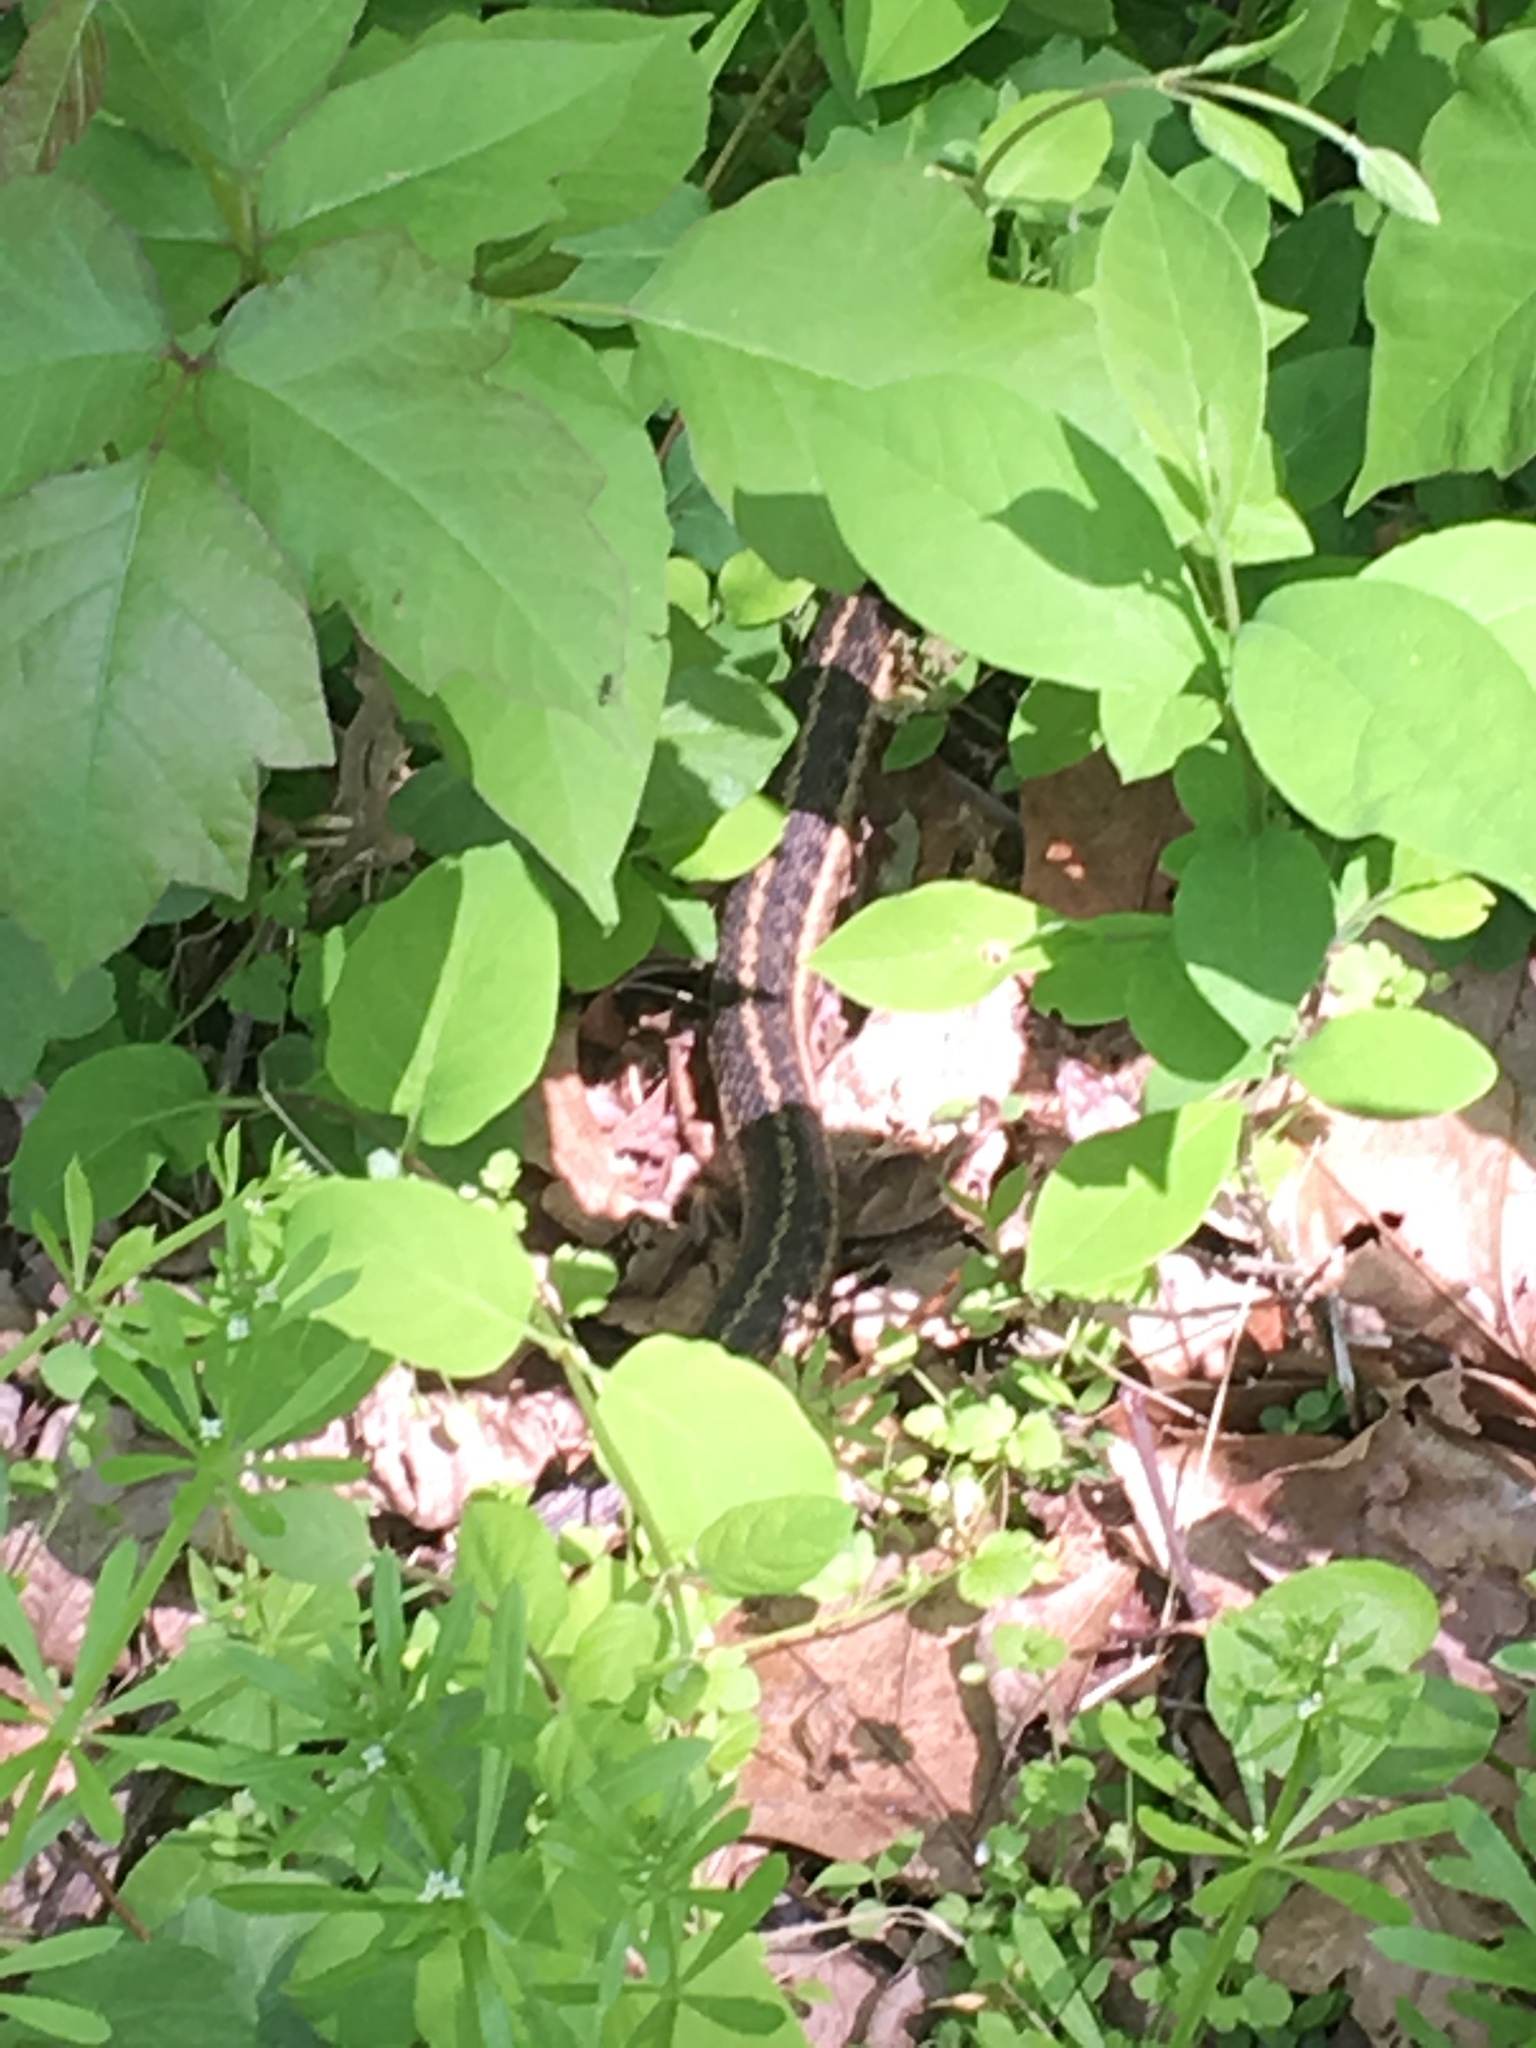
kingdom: Animalia
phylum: Chordata
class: Squamata
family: Colubridae
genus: Thamnophis
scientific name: Thamnophis sirtalis
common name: Common garter snake
